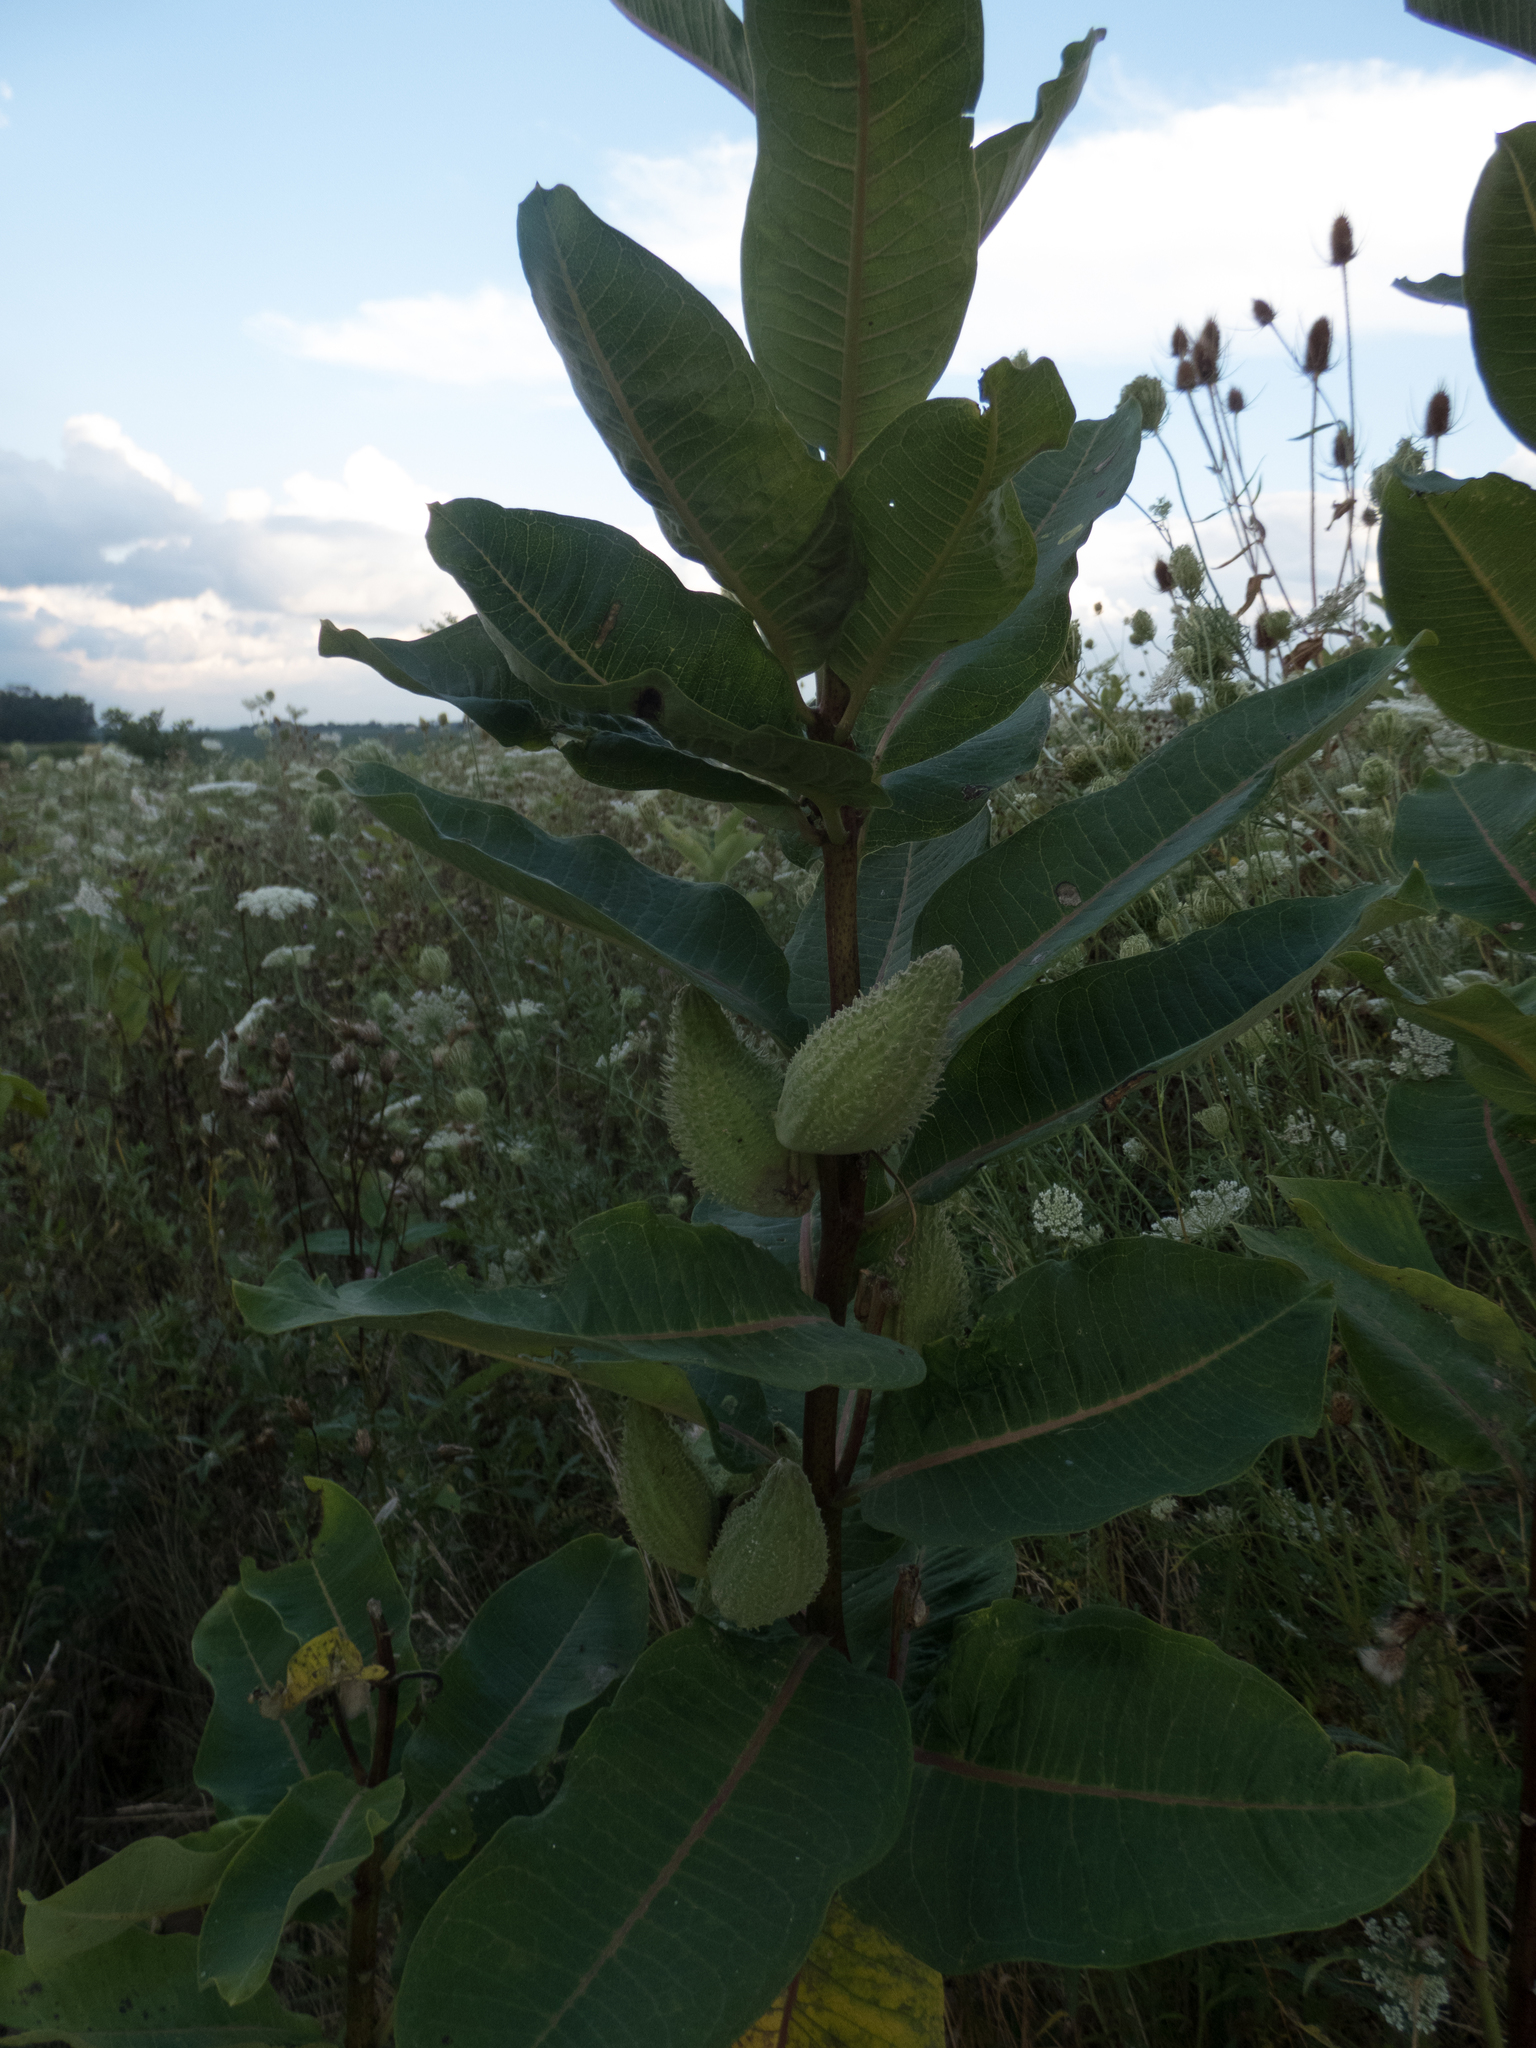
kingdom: Plantae
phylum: Tracheophyta
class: Magnoliopsida
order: Gentianales
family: Apocynaceae
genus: Asclepias
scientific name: Asclepias syriaca
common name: Common milkweed
